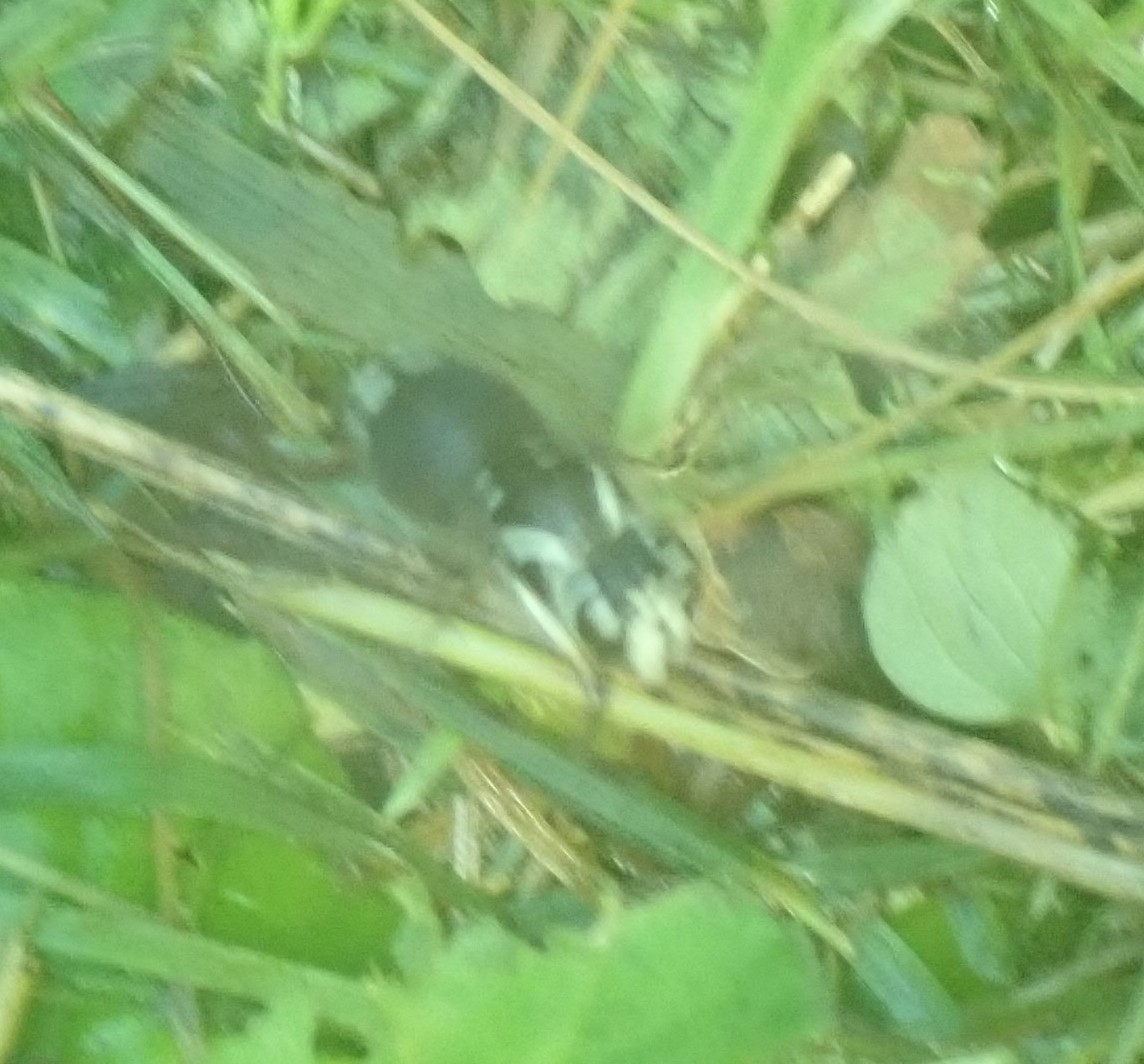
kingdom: Animalia
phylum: Arthropoda
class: Insecta
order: Hymenoptera
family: Vespidae
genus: Dolichovespula
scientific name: Dolichovespula maculata
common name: Bald-faced hornet
